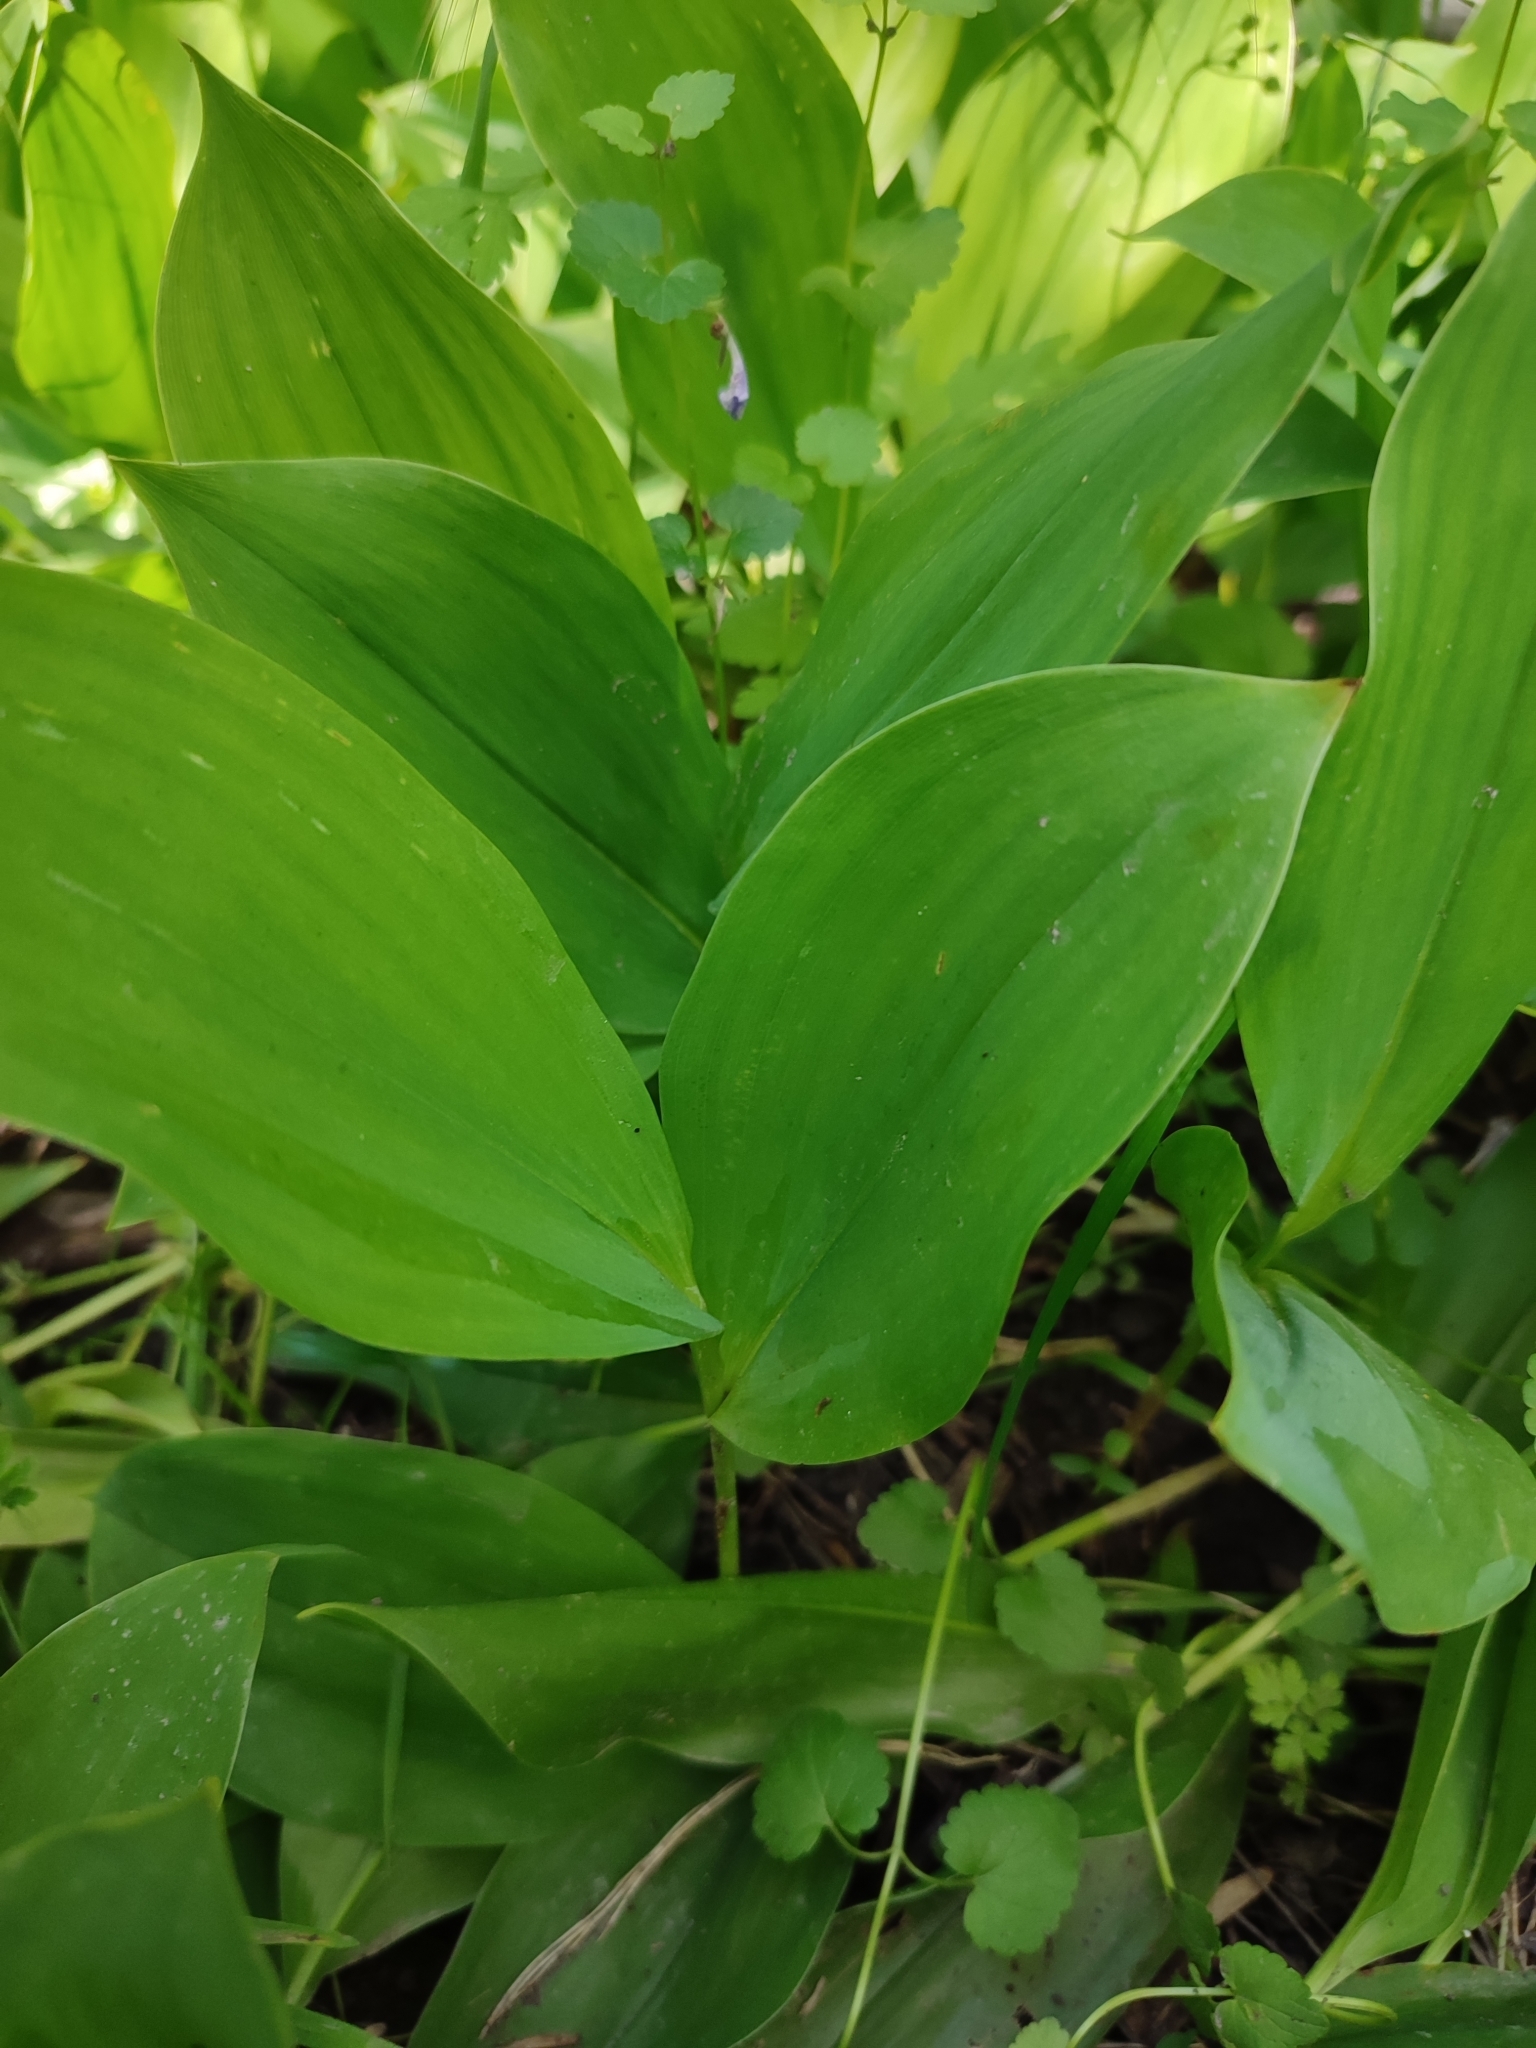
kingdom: Plantae
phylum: Tracheophyta
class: Liliopsida
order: Asparagales
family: Asparagaceae
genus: Convallaria
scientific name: Convallaria majalis
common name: Lily-of-the-valley
